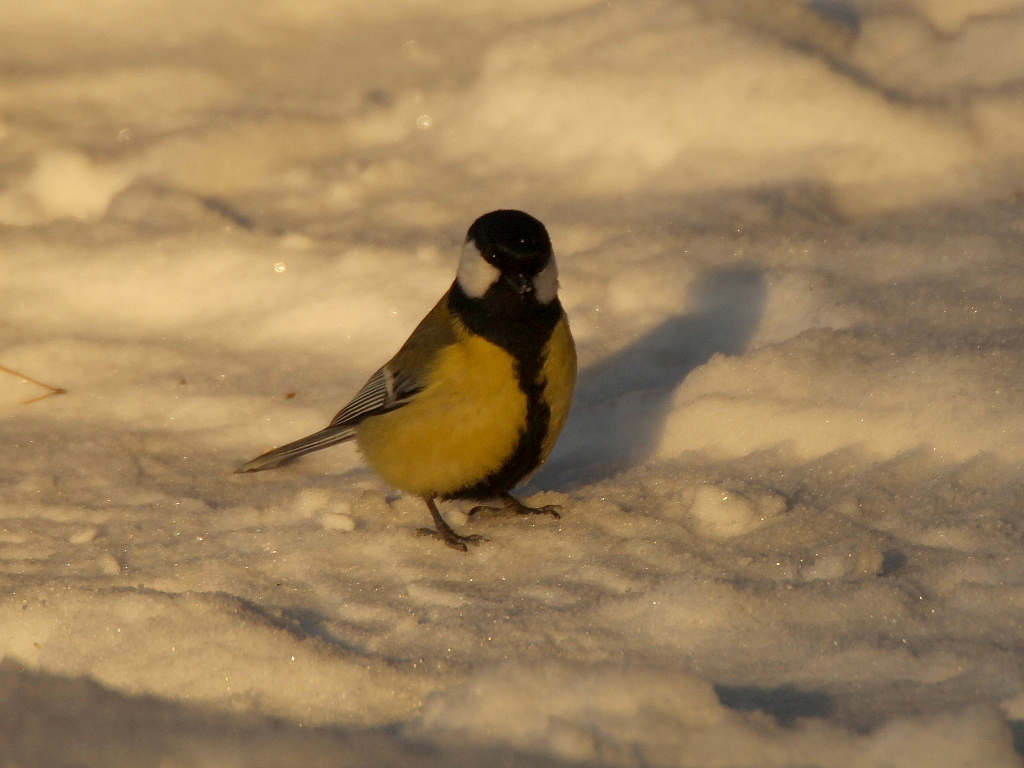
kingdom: Animalia
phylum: Chordata
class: Aves
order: Passeriformes
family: Paridae
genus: Parus
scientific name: Parus major
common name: Great tit
